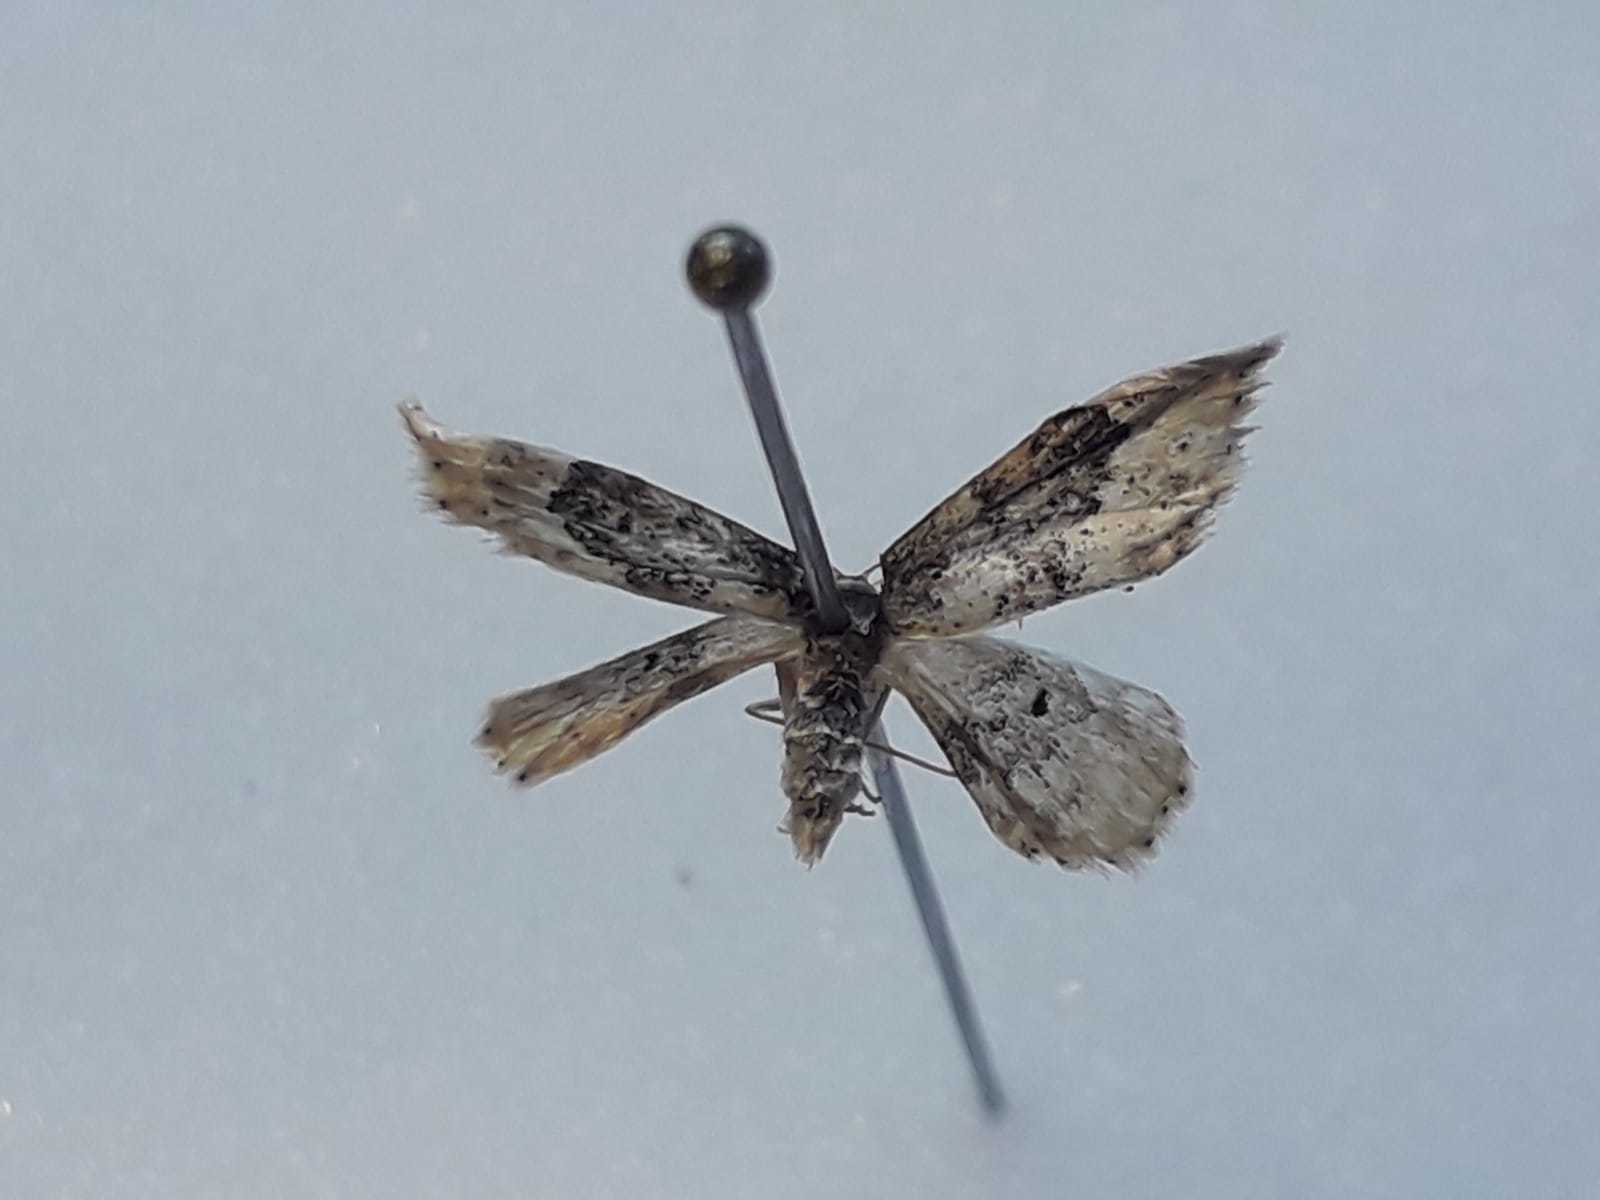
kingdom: Animalia
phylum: Arthropoda
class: Insecta
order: Lepidoptera
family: Geometridae
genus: Idaea
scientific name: Idaea rusticata
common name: Least carpet
